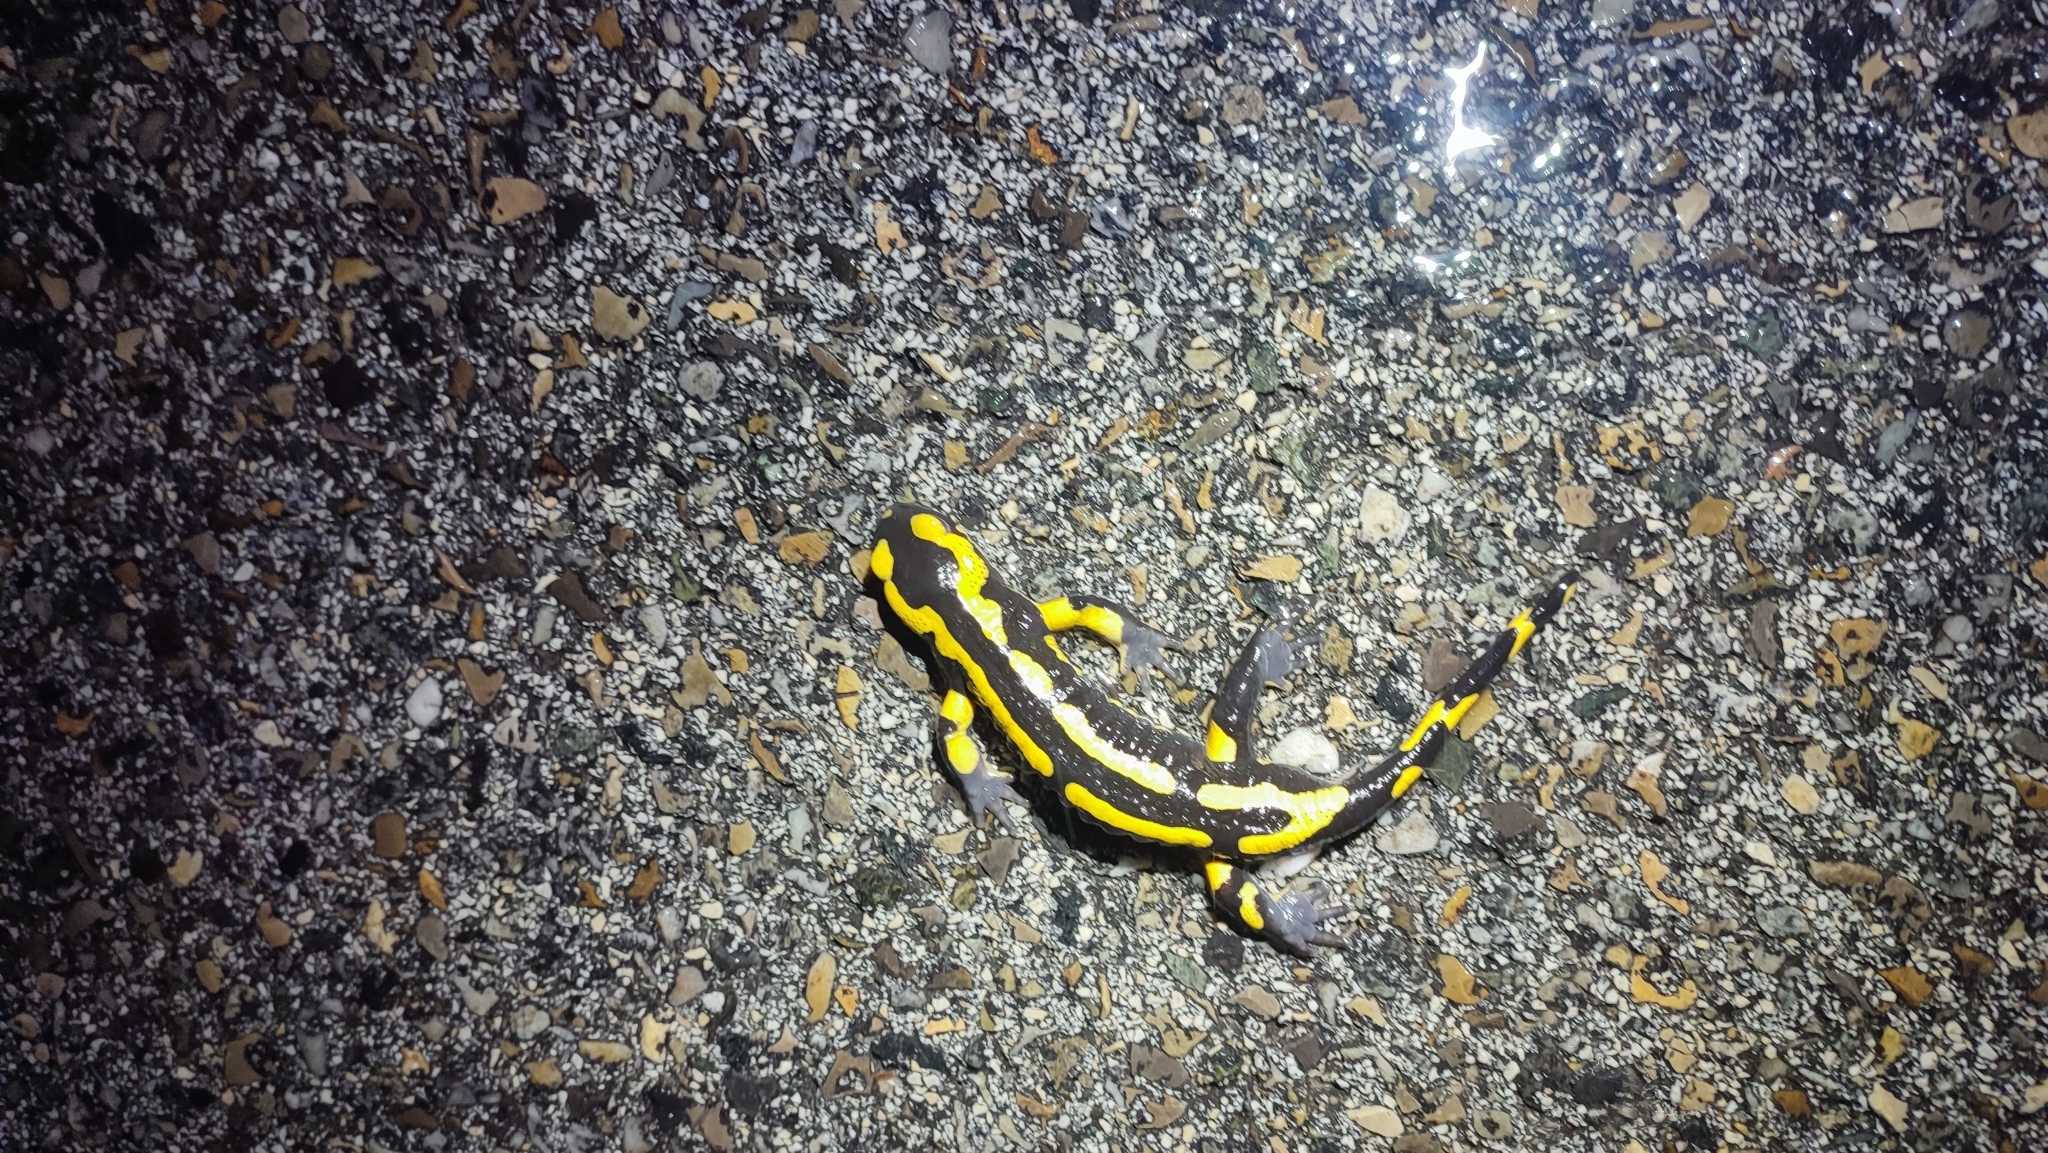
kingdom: Animalia
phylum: Chordata
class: Amphibia
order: Caudata
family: Salamandridae
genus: Salamandra
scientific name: Salamandra salamandra
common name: Fire salamander
